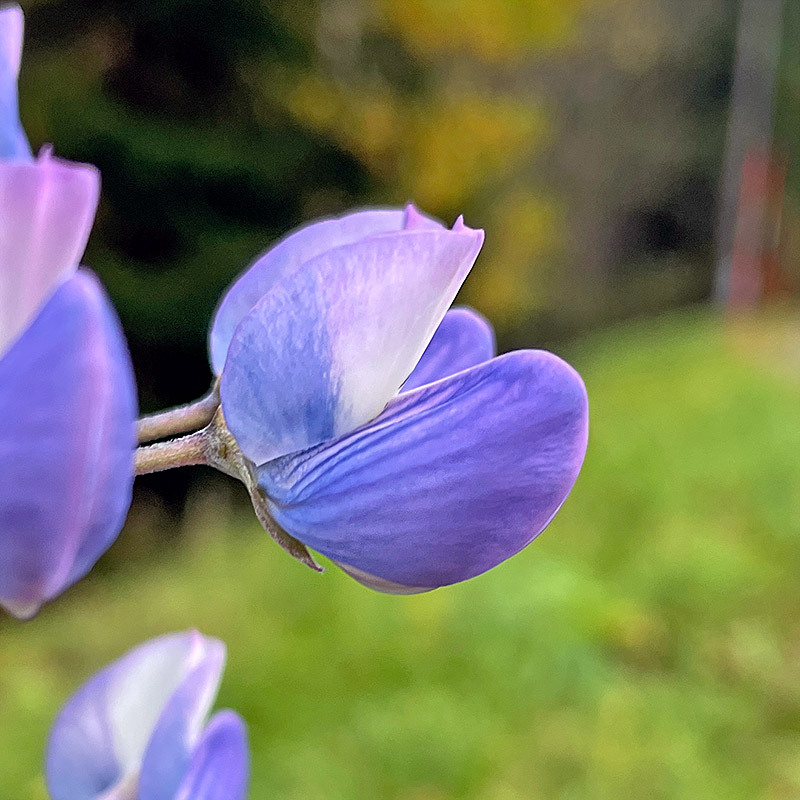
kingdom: Plantae
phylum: Tracheophyta
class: Magnoliopsida
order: Fabales
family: Fabaceae
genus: Lupinus
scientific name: Lupinus polyphyllus
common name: Garden lupin
